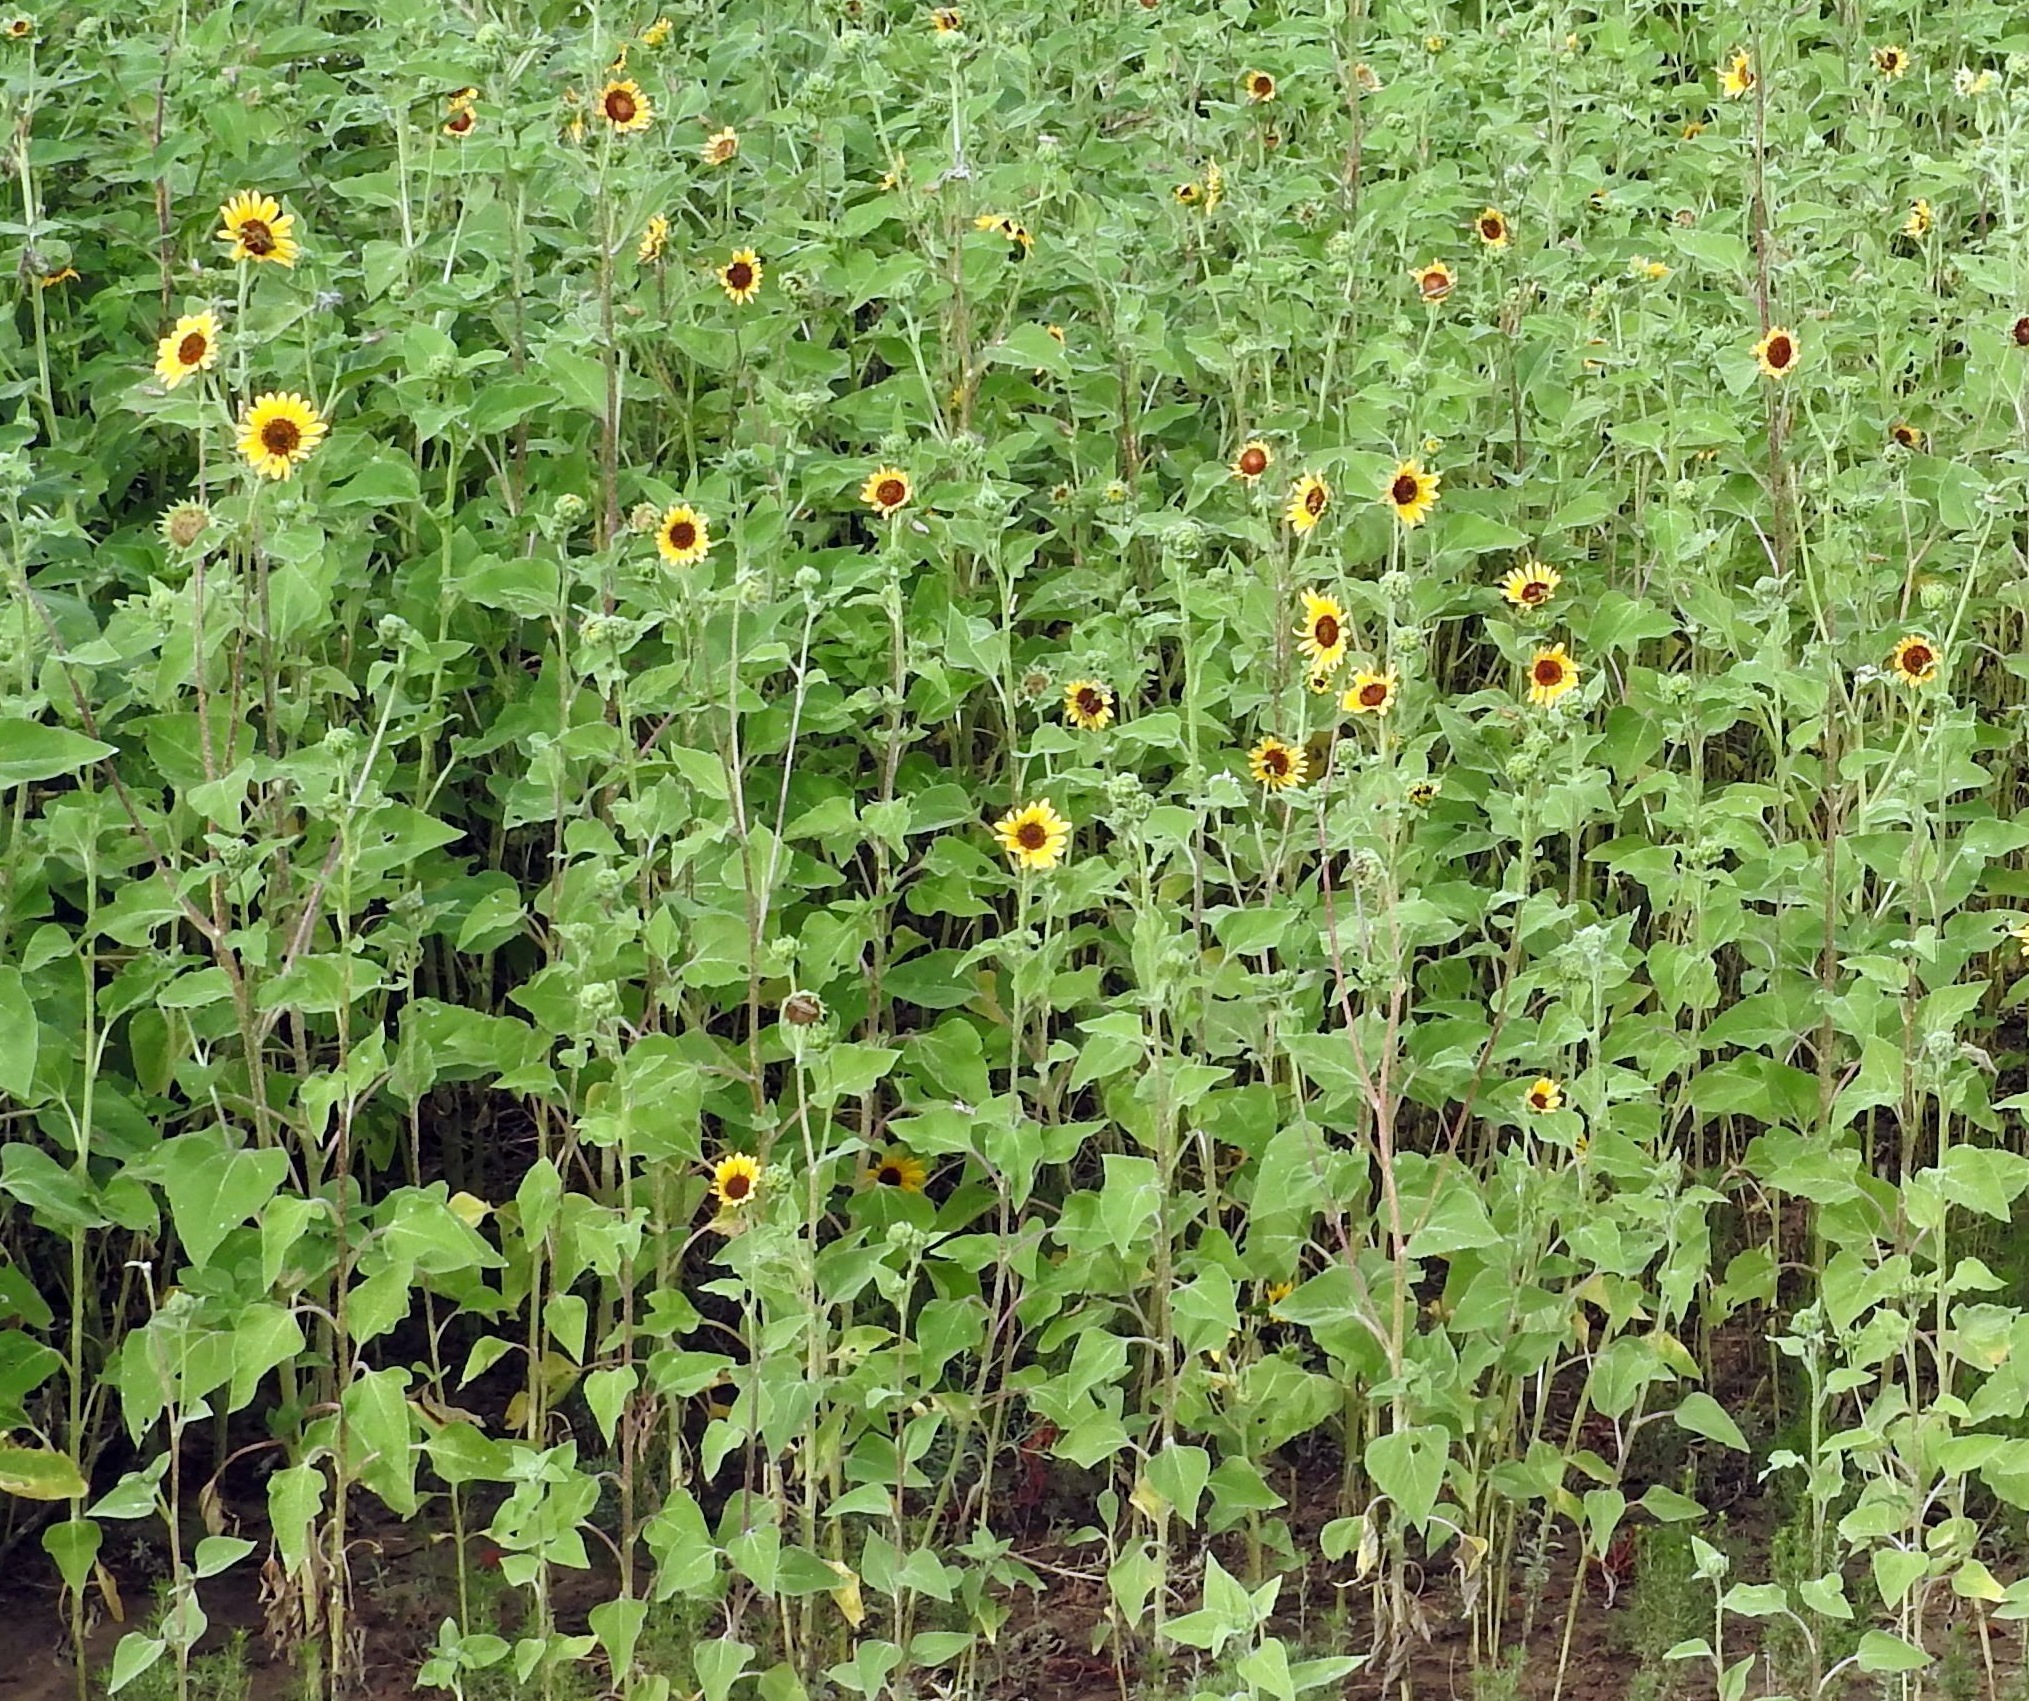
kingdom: Plantae
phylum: Tracheophyta
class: Magnoliopsida
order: Asterales
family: Asteraceae
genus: Helianthus
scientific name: Helianthus annuus
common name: Sunflower
